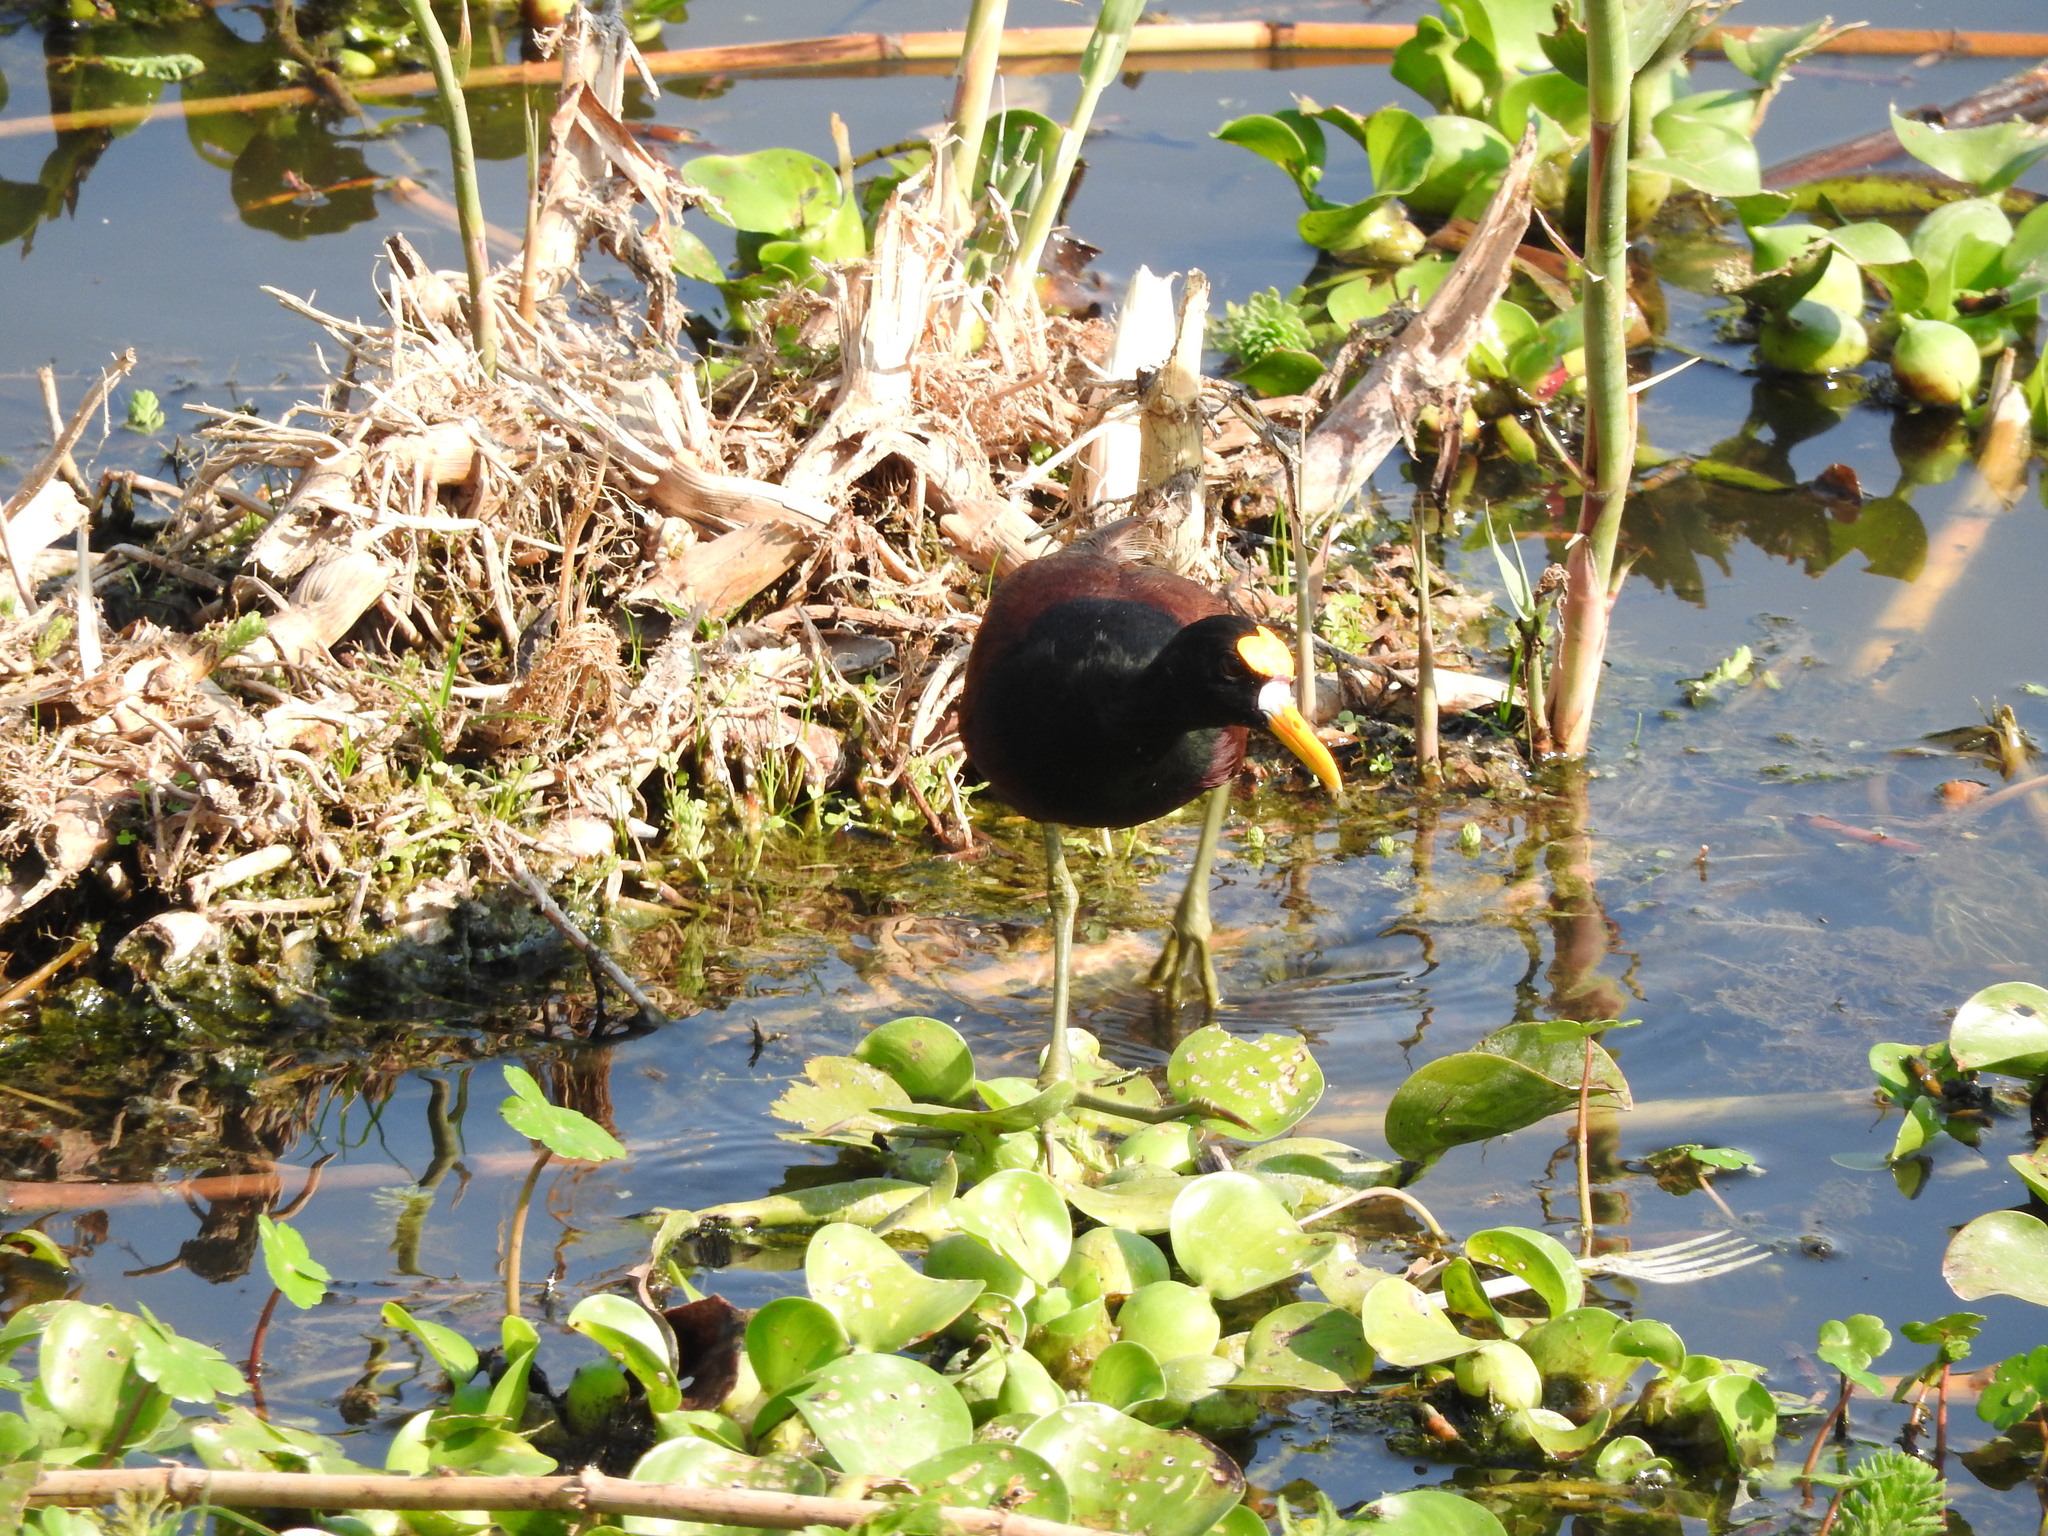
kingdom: Animalia
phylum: Chordata
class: Aves
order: Charadriiformes
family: Jacanidae
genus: Jacana
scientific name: Jacana spinosa
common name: Northern jacana
